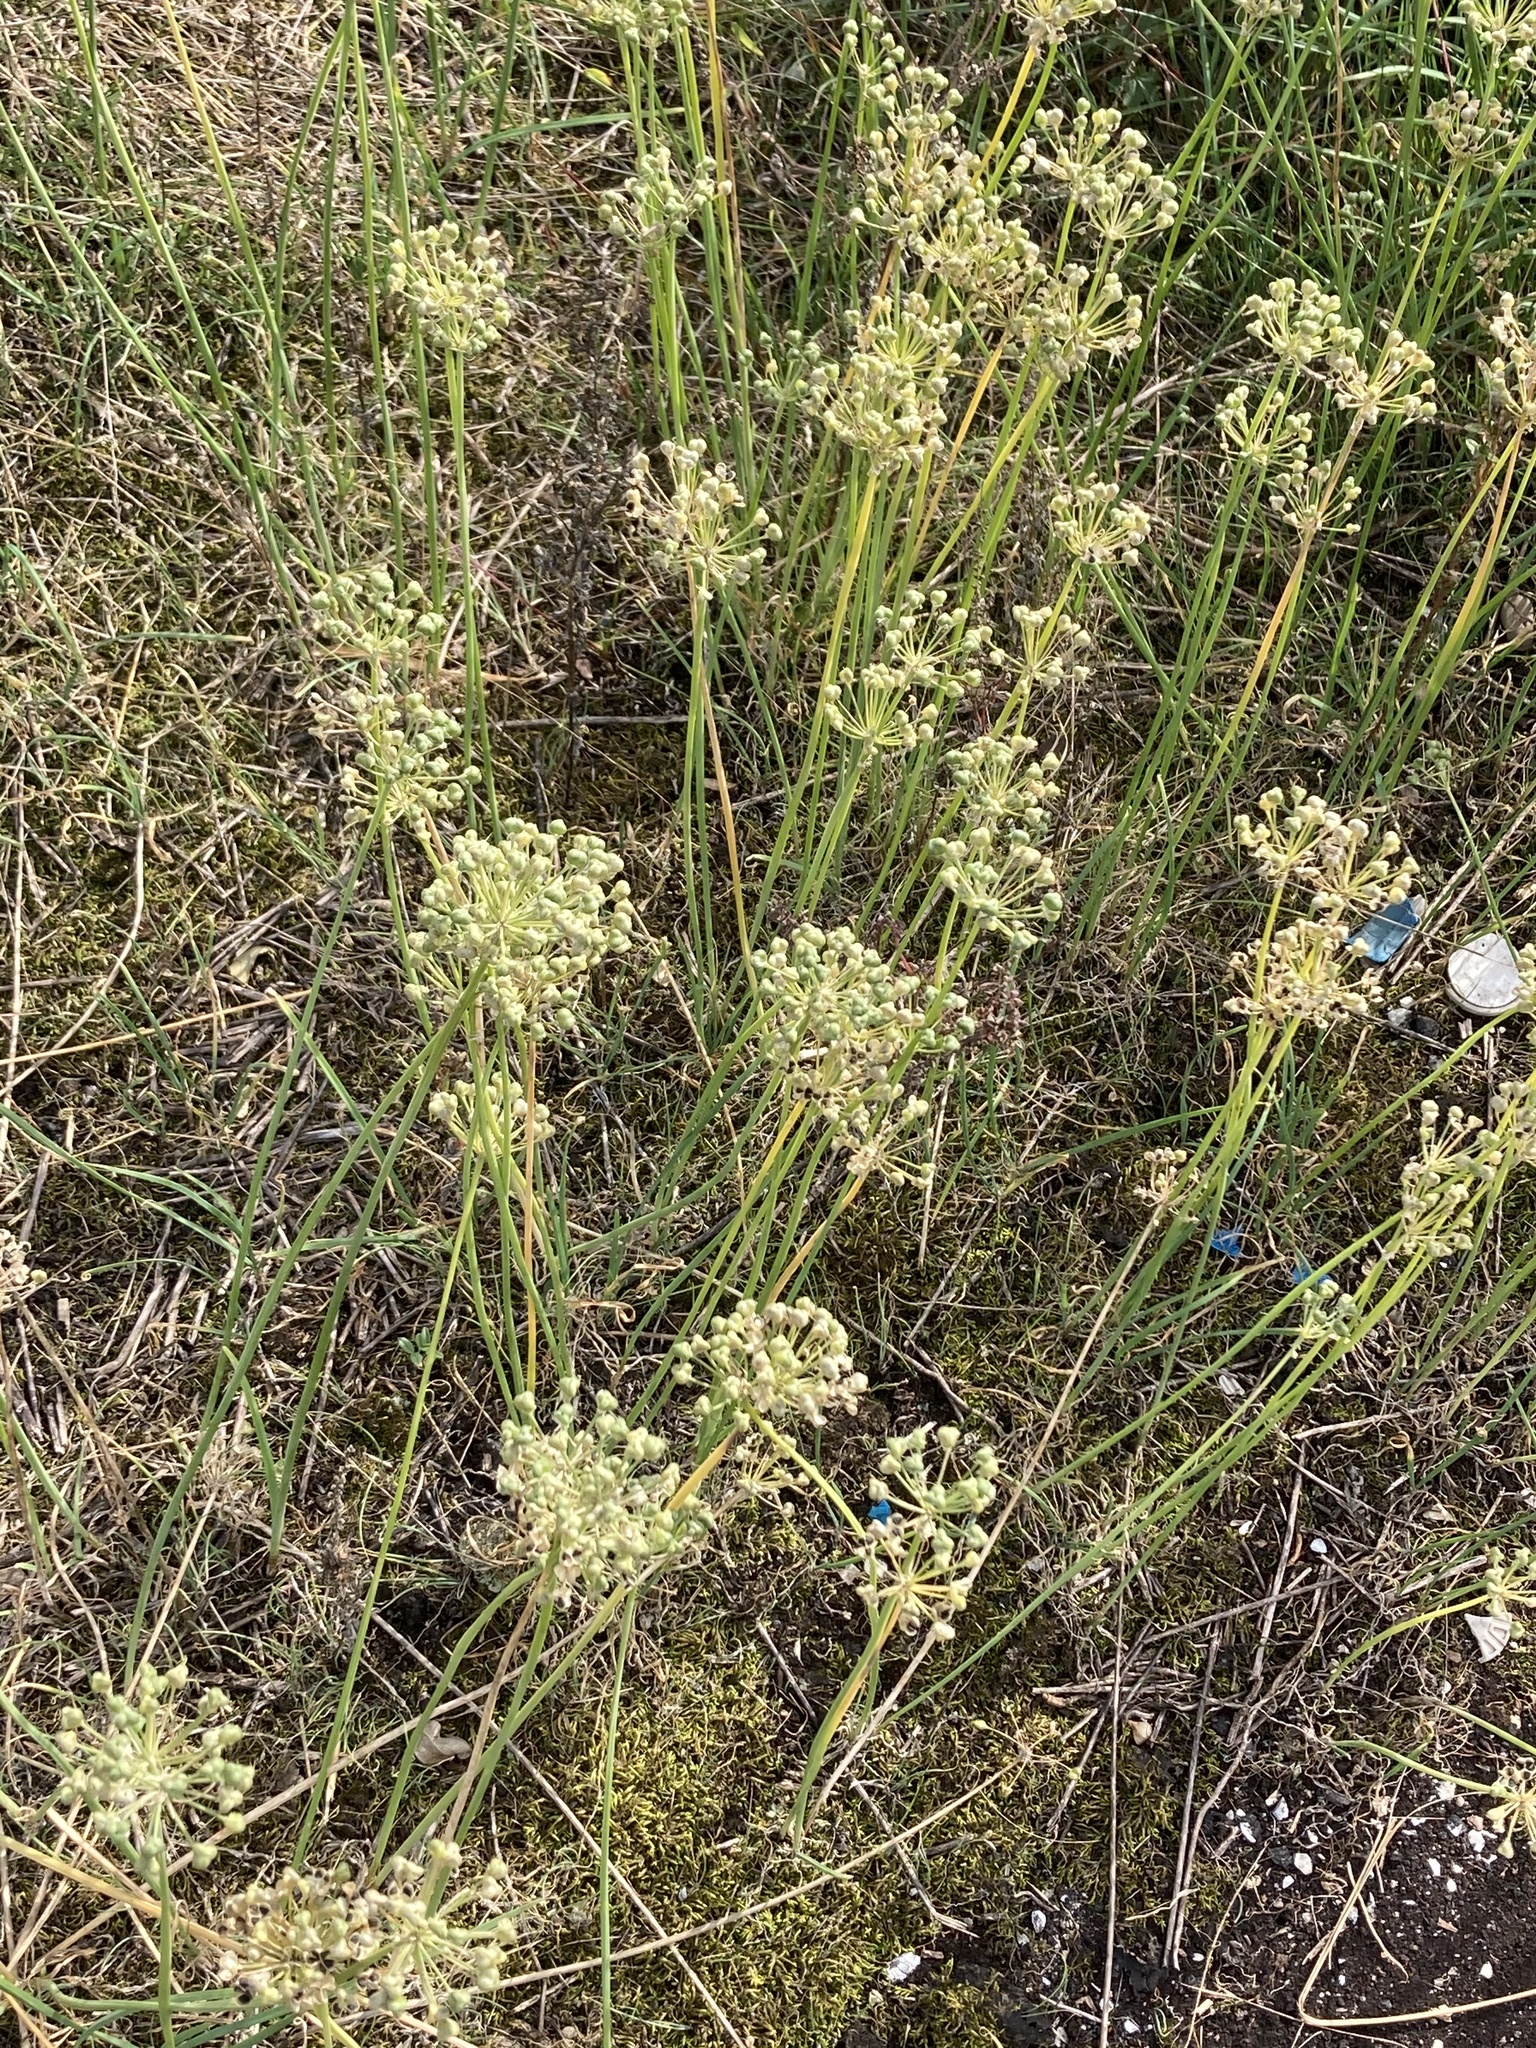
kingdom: Plantae
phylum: Tracheophyta
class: Liliopsida
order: Asparagales
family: Amaryllidaceae
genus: Allium
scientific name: Allium tuberosum
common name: Chinese chives
